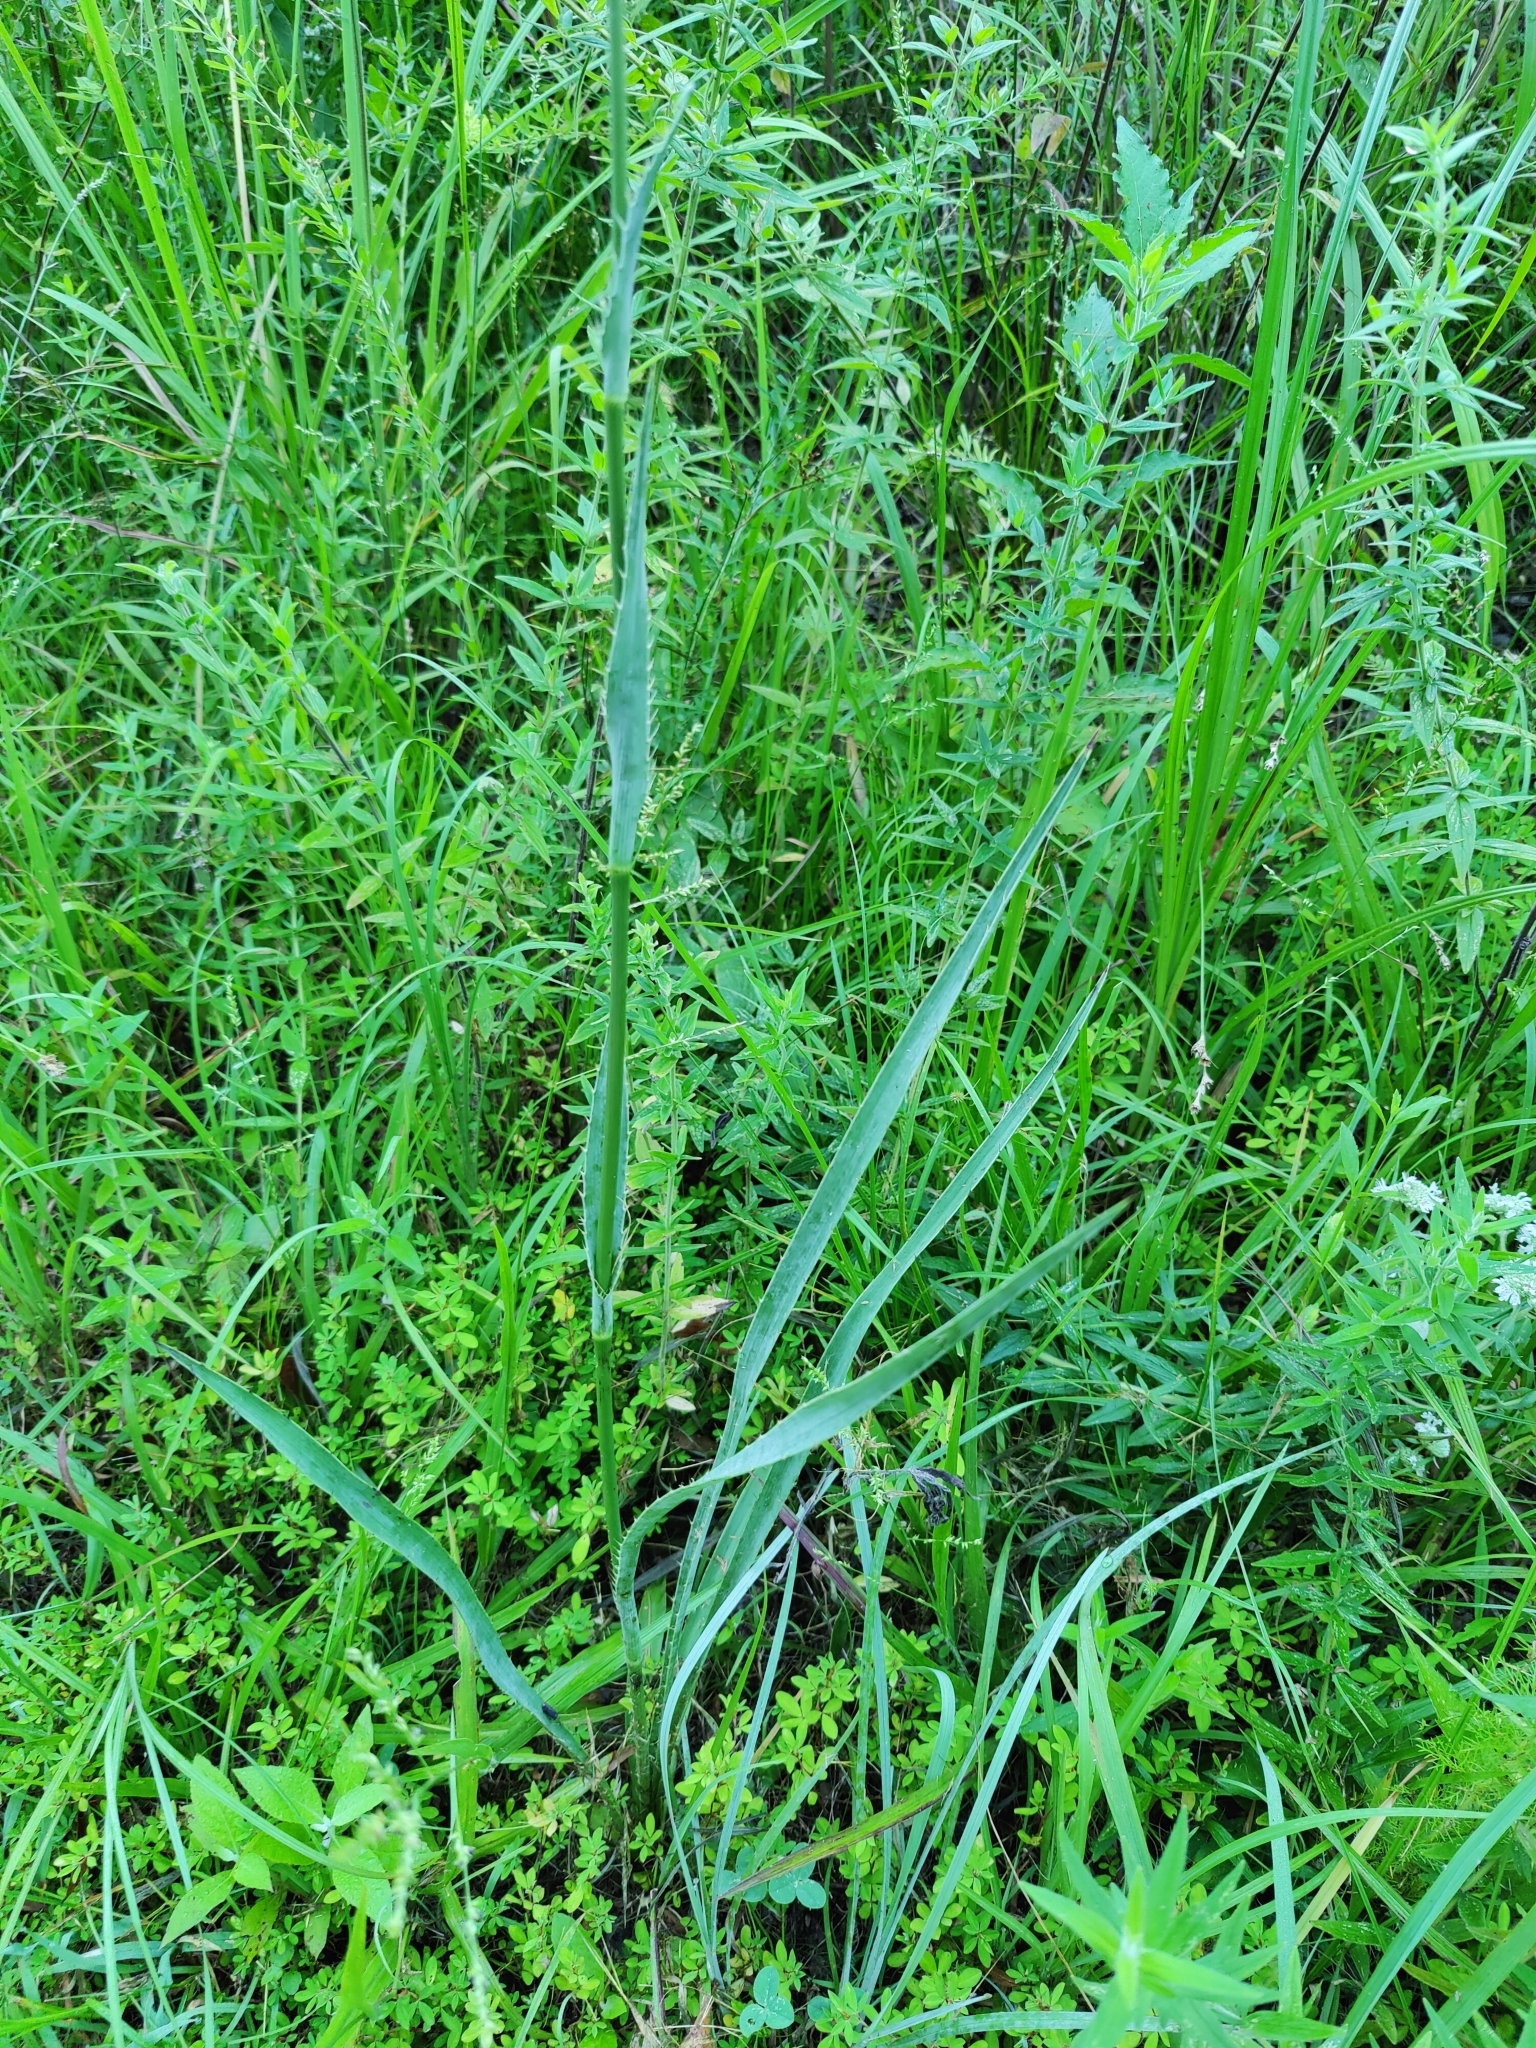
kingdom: Plantae
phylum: Tracheophyta
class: Magnoliopsida
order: Apiales
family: Apiaceae
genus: Eryngium
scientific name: Eryngium yuccifolium
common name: Button eryngo
